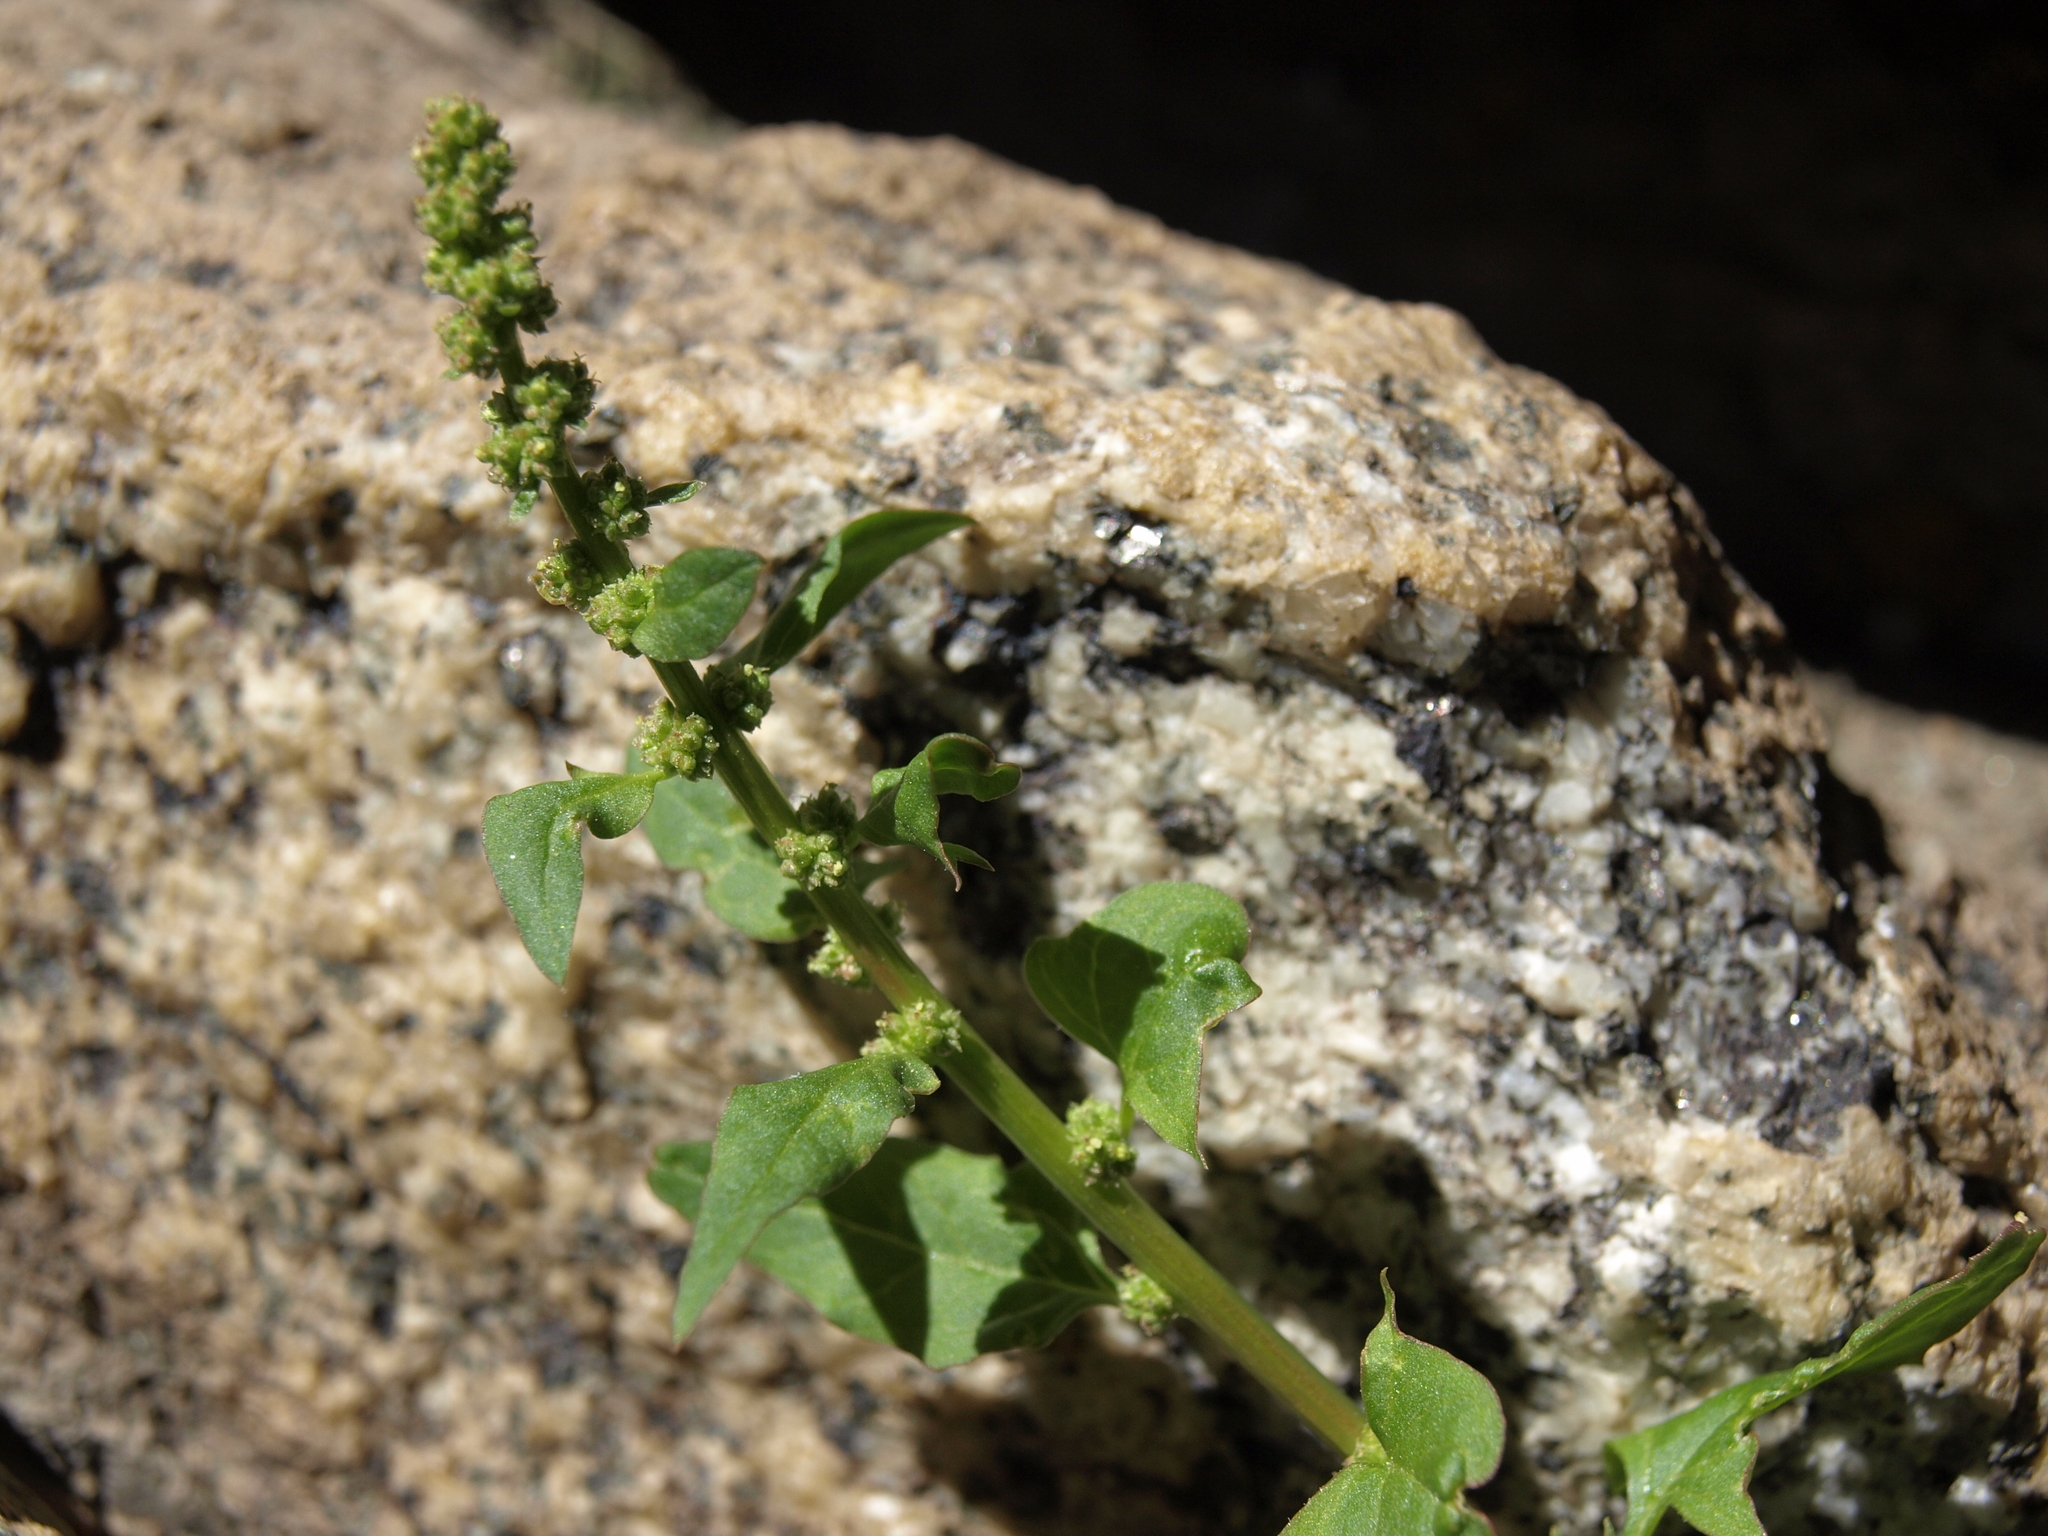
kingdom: Plantae
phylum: Tracheophyta
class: Magnoliopsida
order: Caryophyllales
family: Amaranthaceae
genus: Blitum
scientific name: Blitum capitatum
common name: Strawberry-blight
